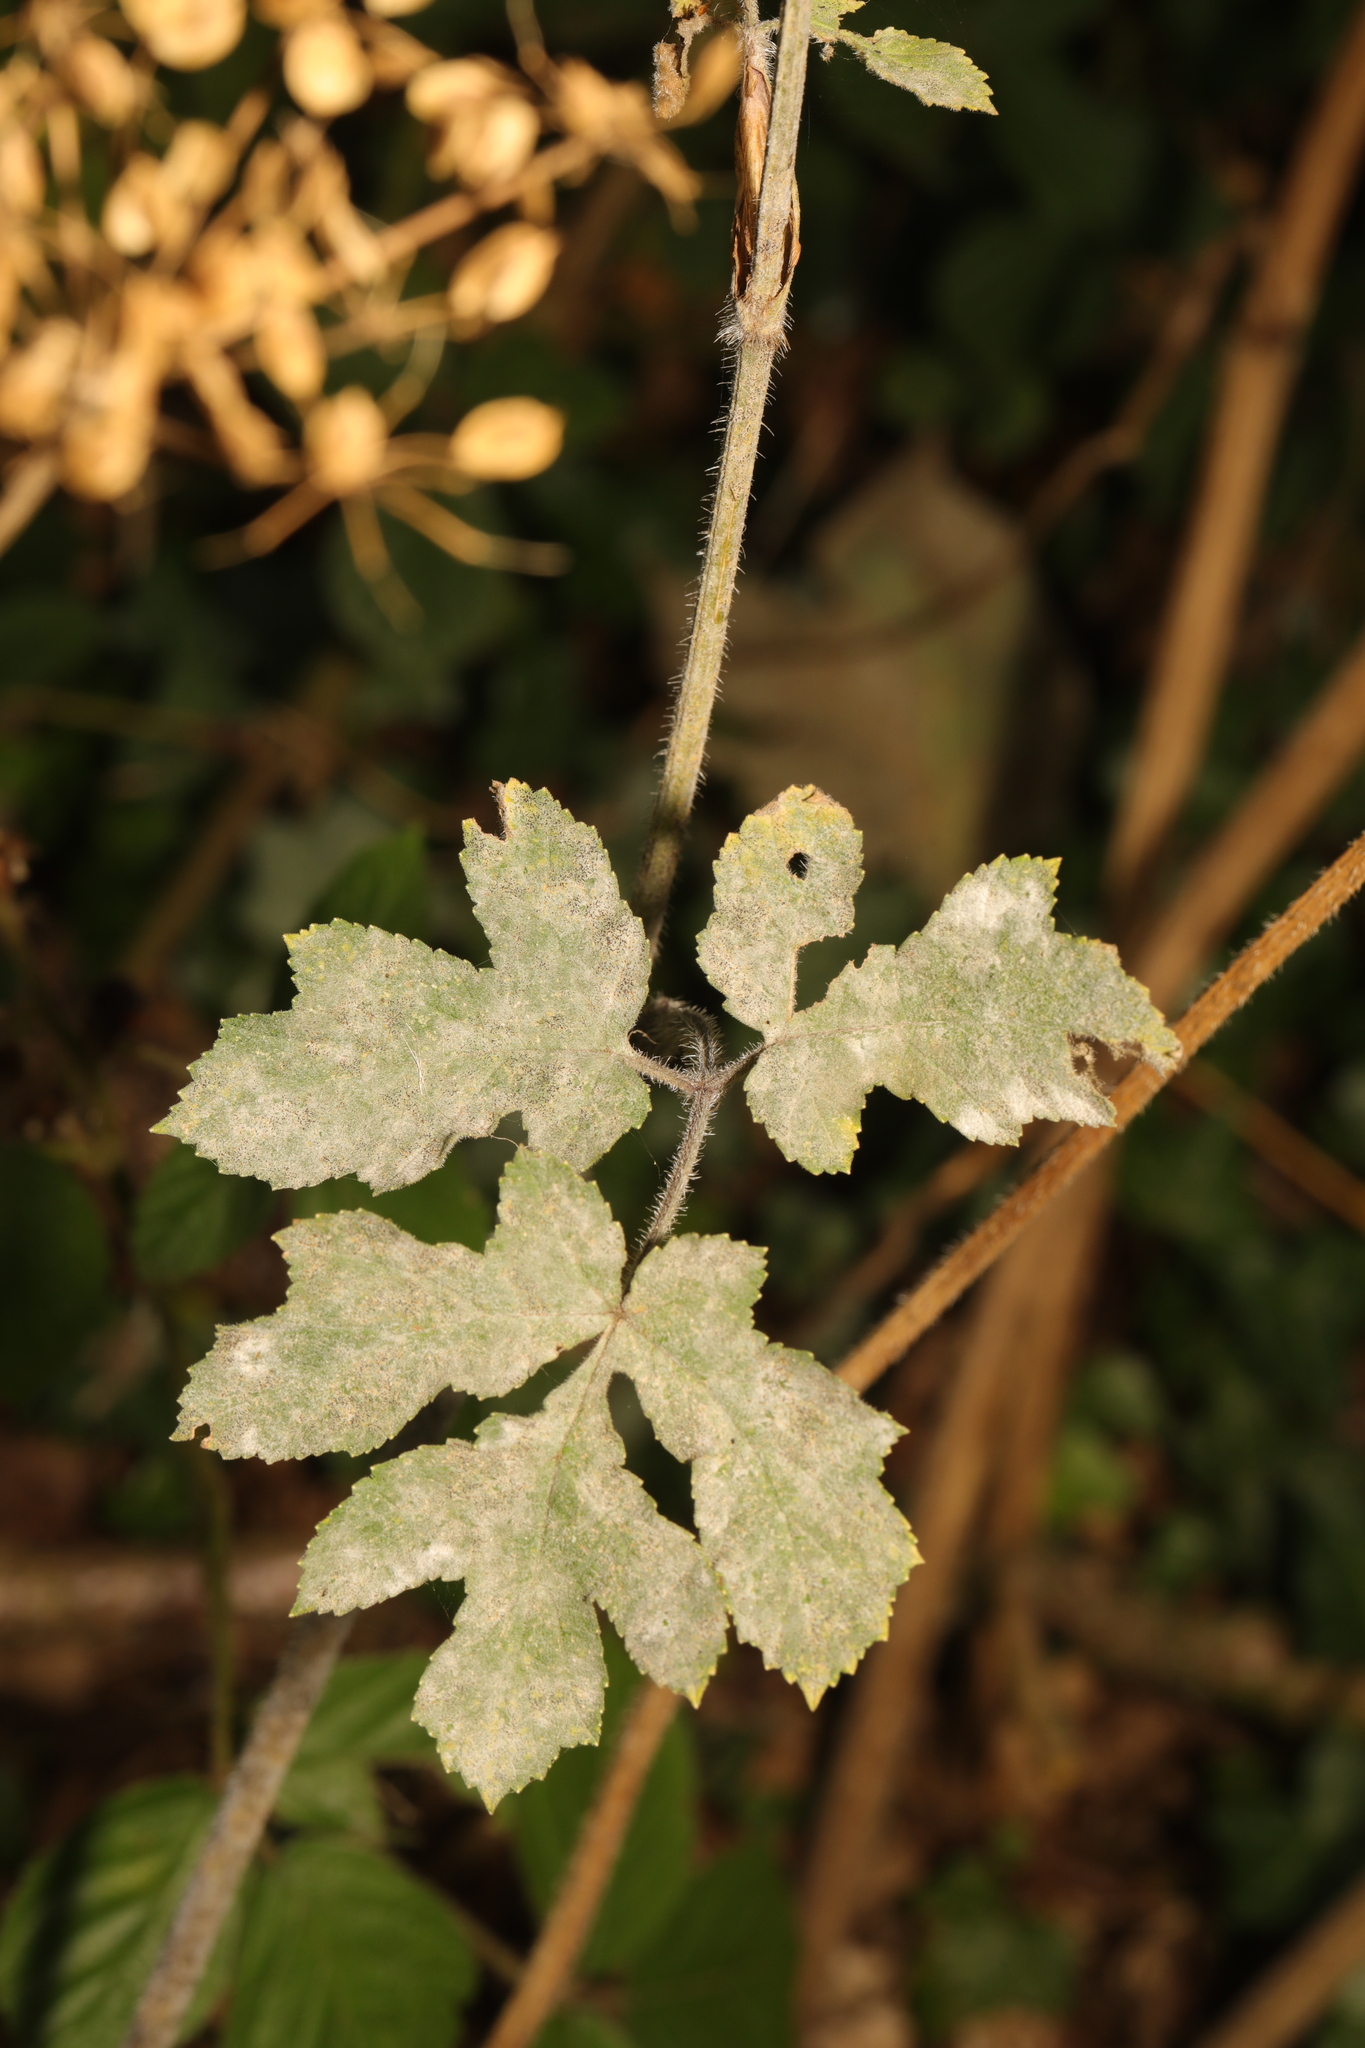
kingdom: Plantae
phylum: Tracheophyta
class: Magnoliopsida
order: Apiales
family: Apiaceae
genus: Heracleum
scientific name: Heracleum sphondylium
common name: Hogweed
